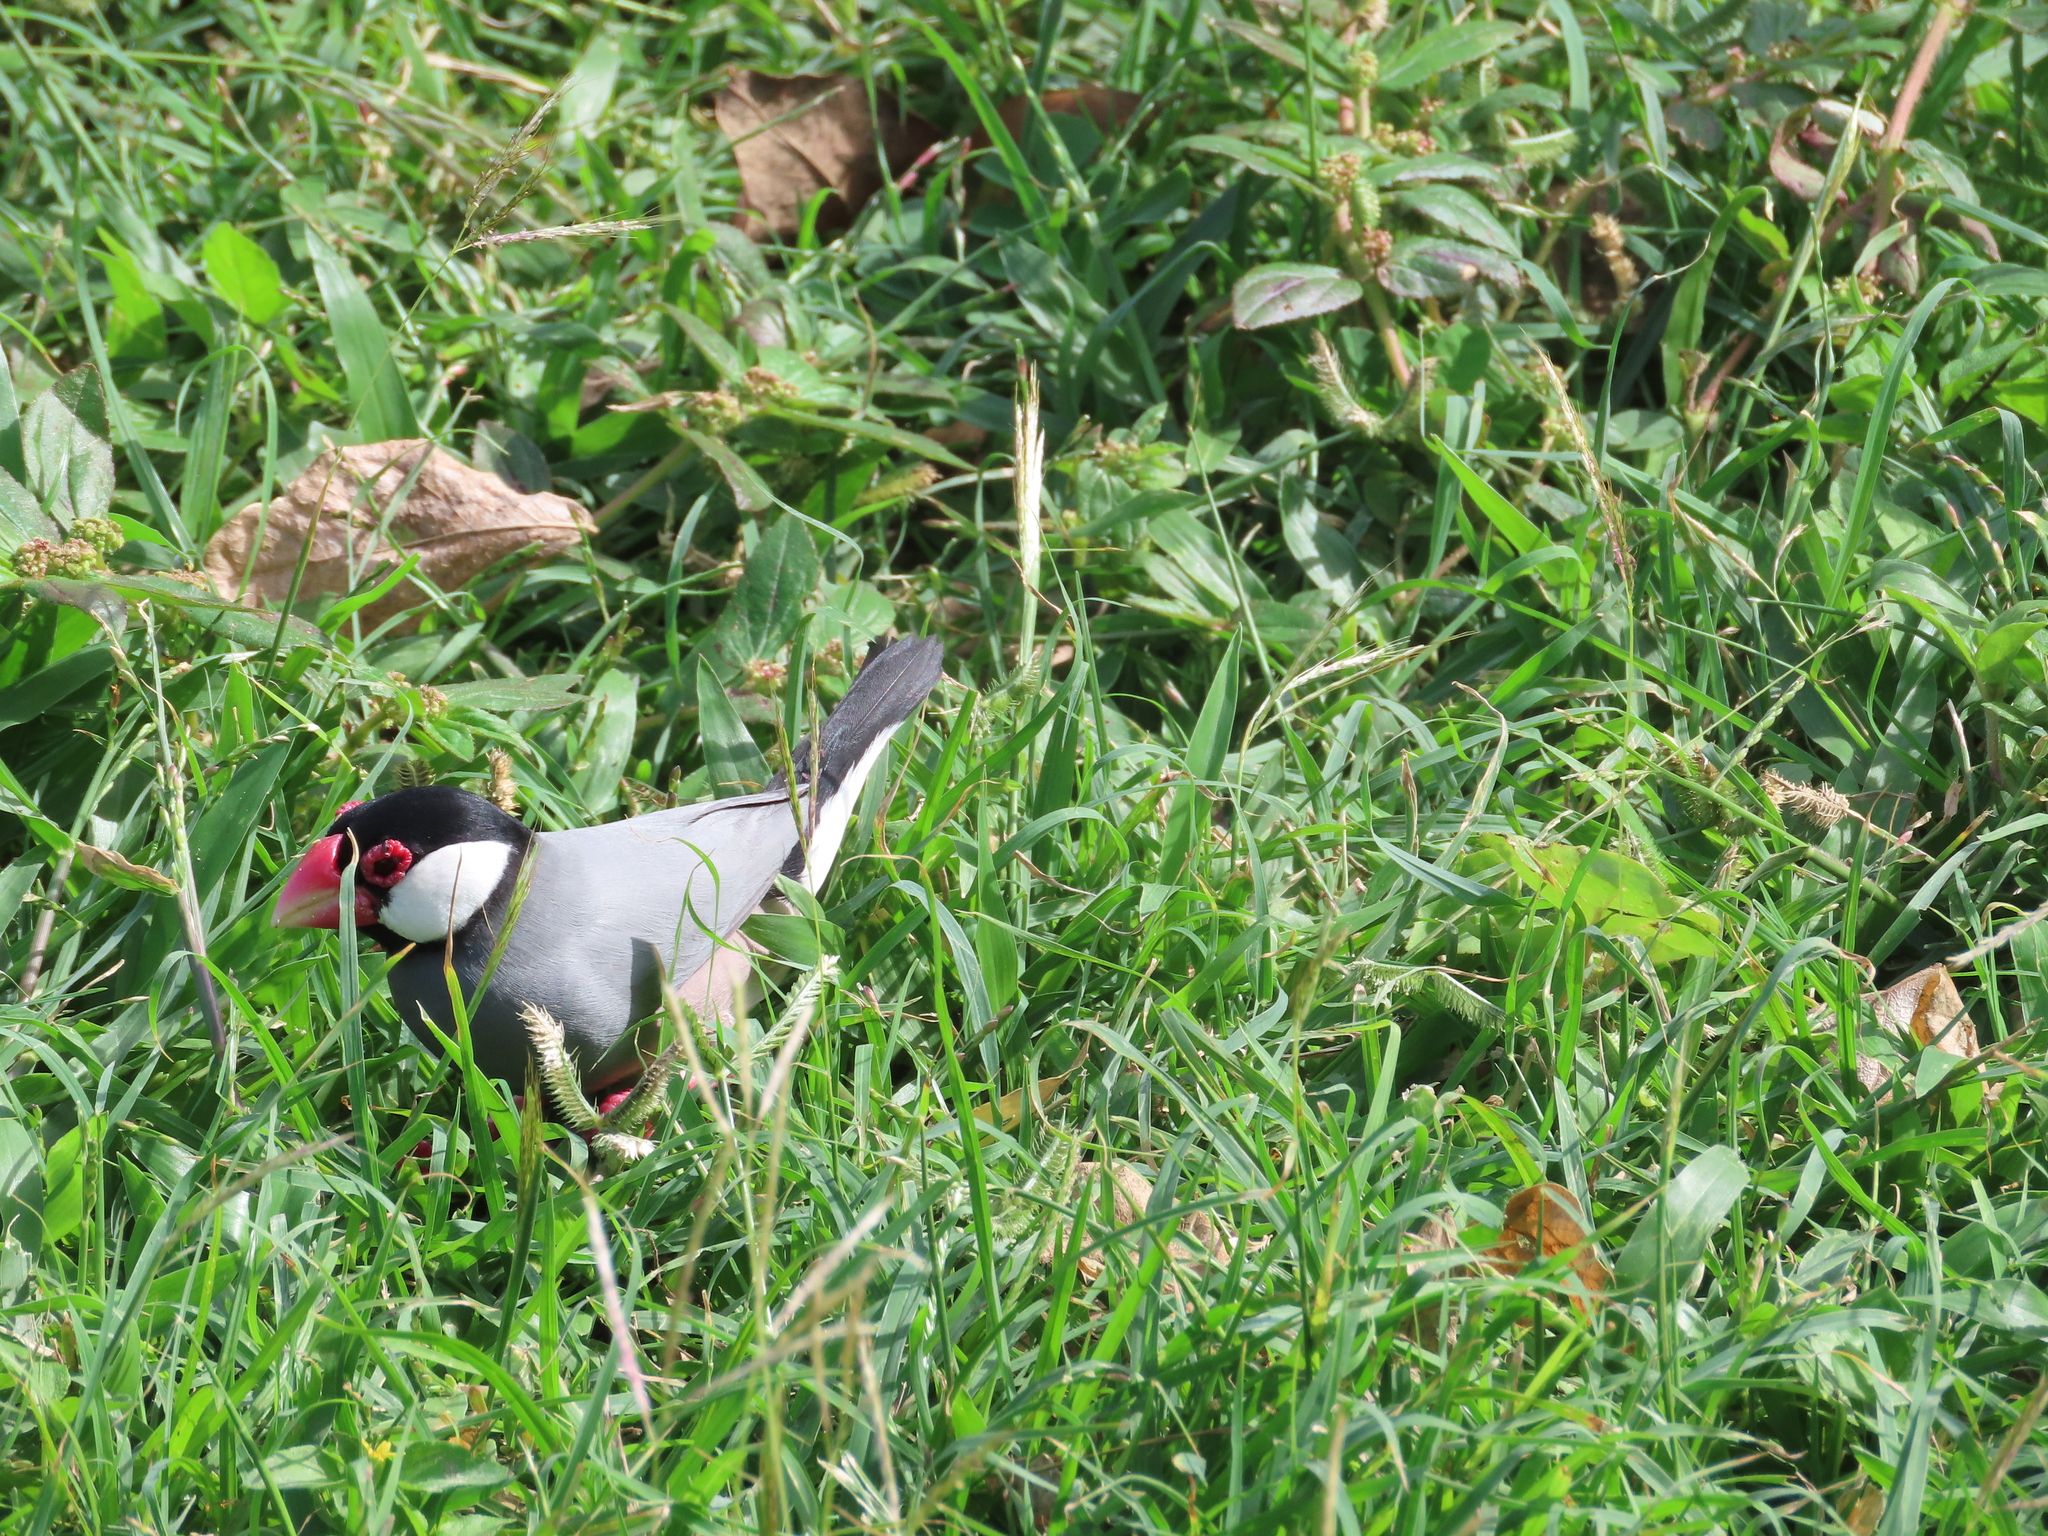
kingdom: Animalia
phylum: Chordata
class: Aves
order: Passeriformes
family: Estrildidae
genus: Lonchura
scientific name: Lonchura oryzivora
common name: Java sparrow
